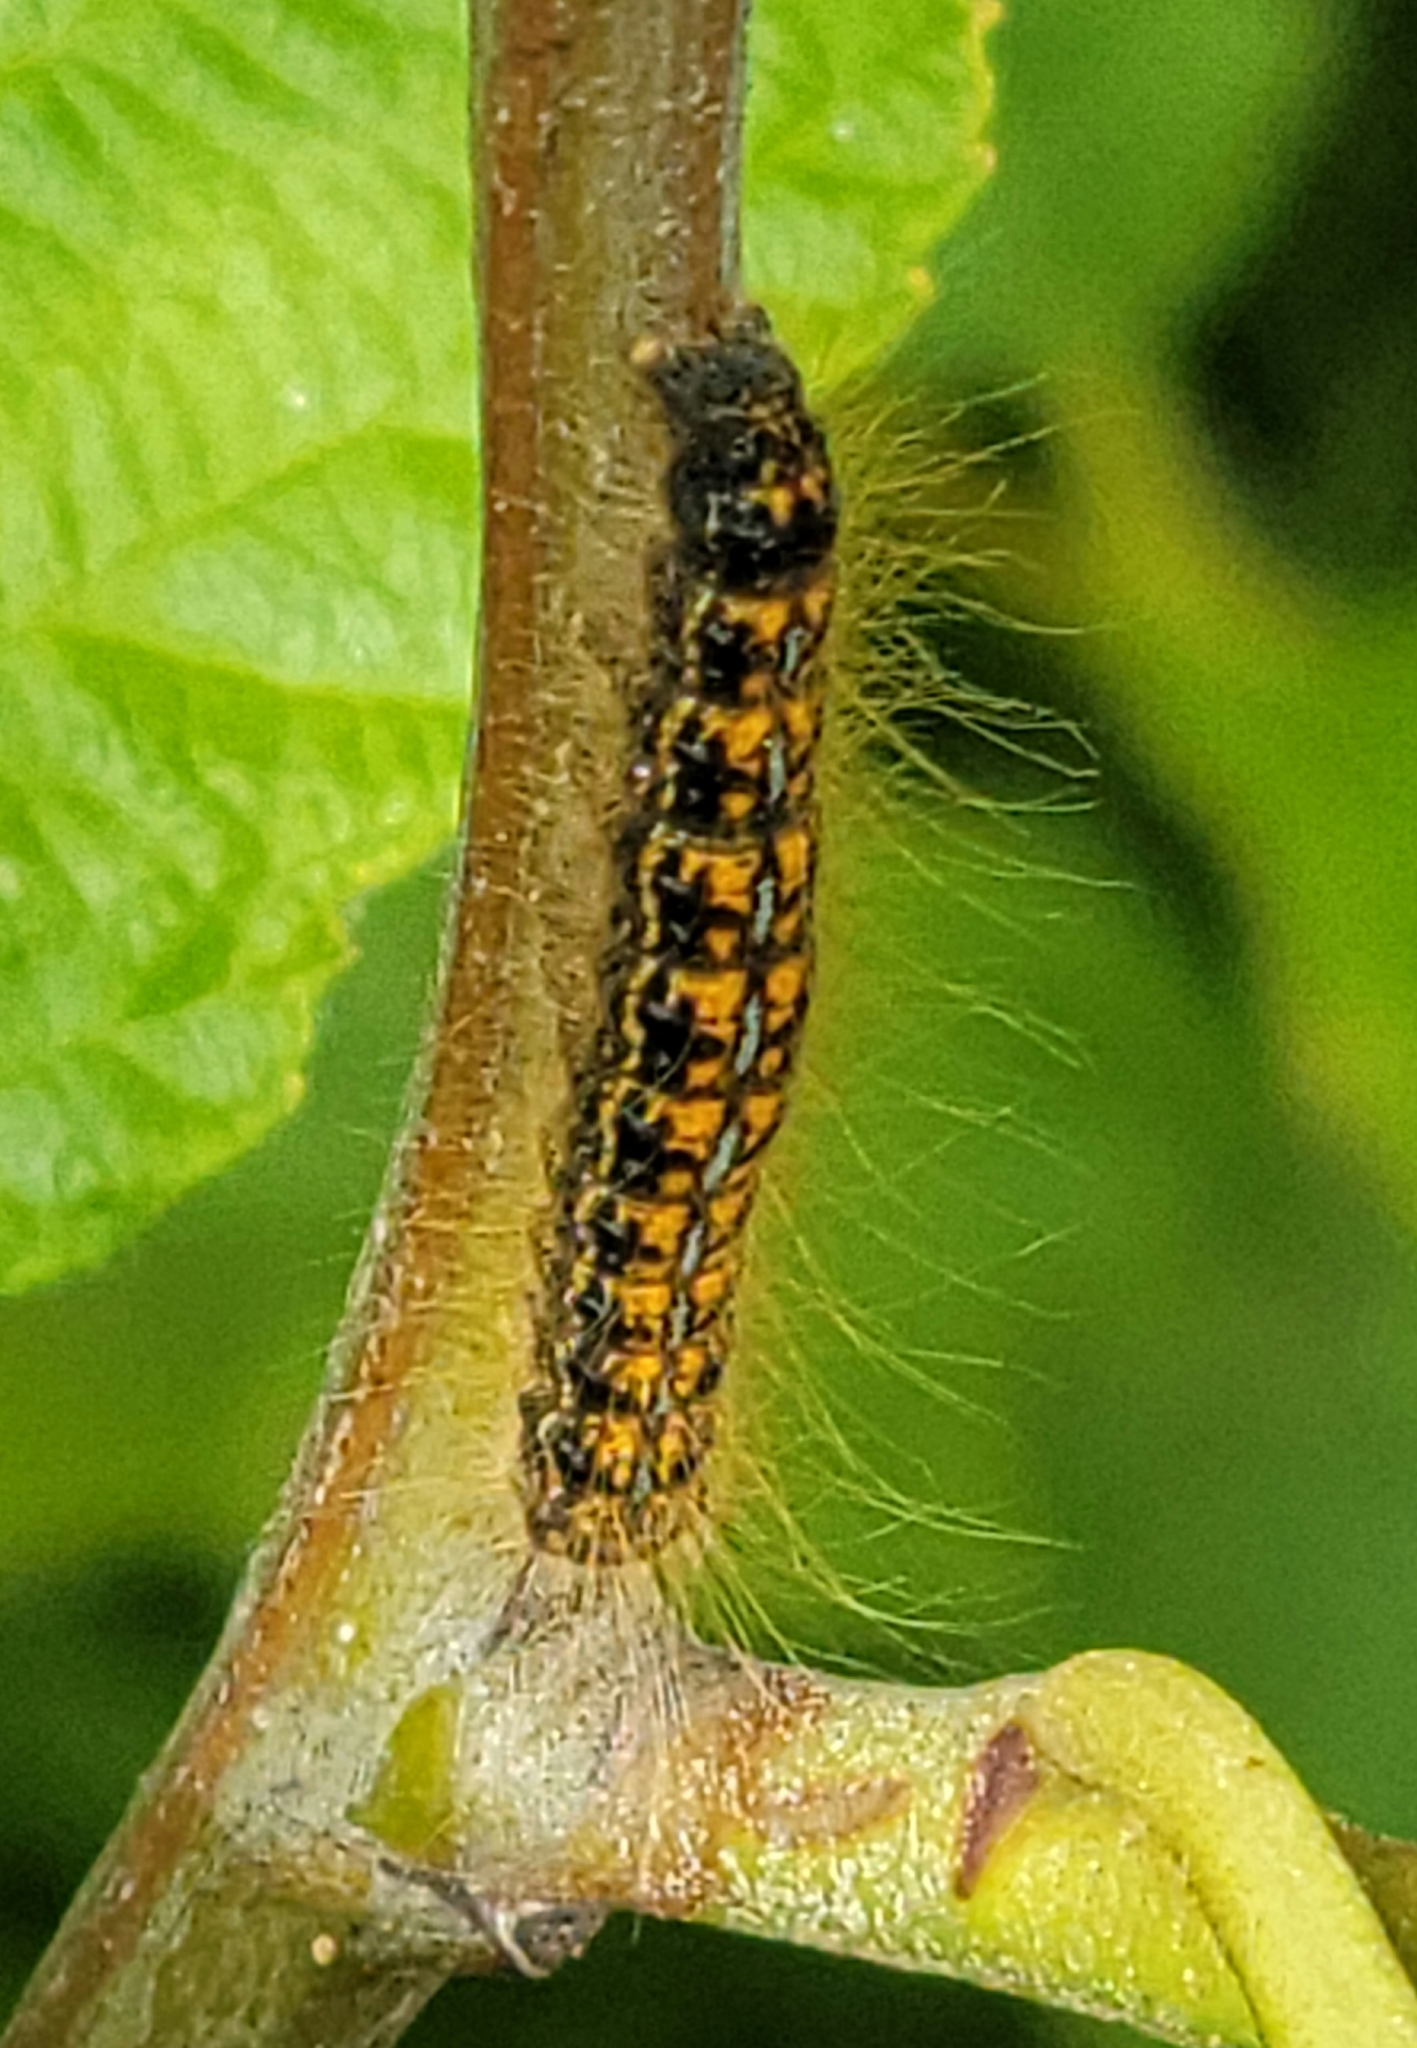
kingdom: Animalia
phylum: Arthropoda
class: Insecta
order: Lepidoptera
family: Lasiocampidae
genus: Malacosoma
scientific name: Malacosoma californica
